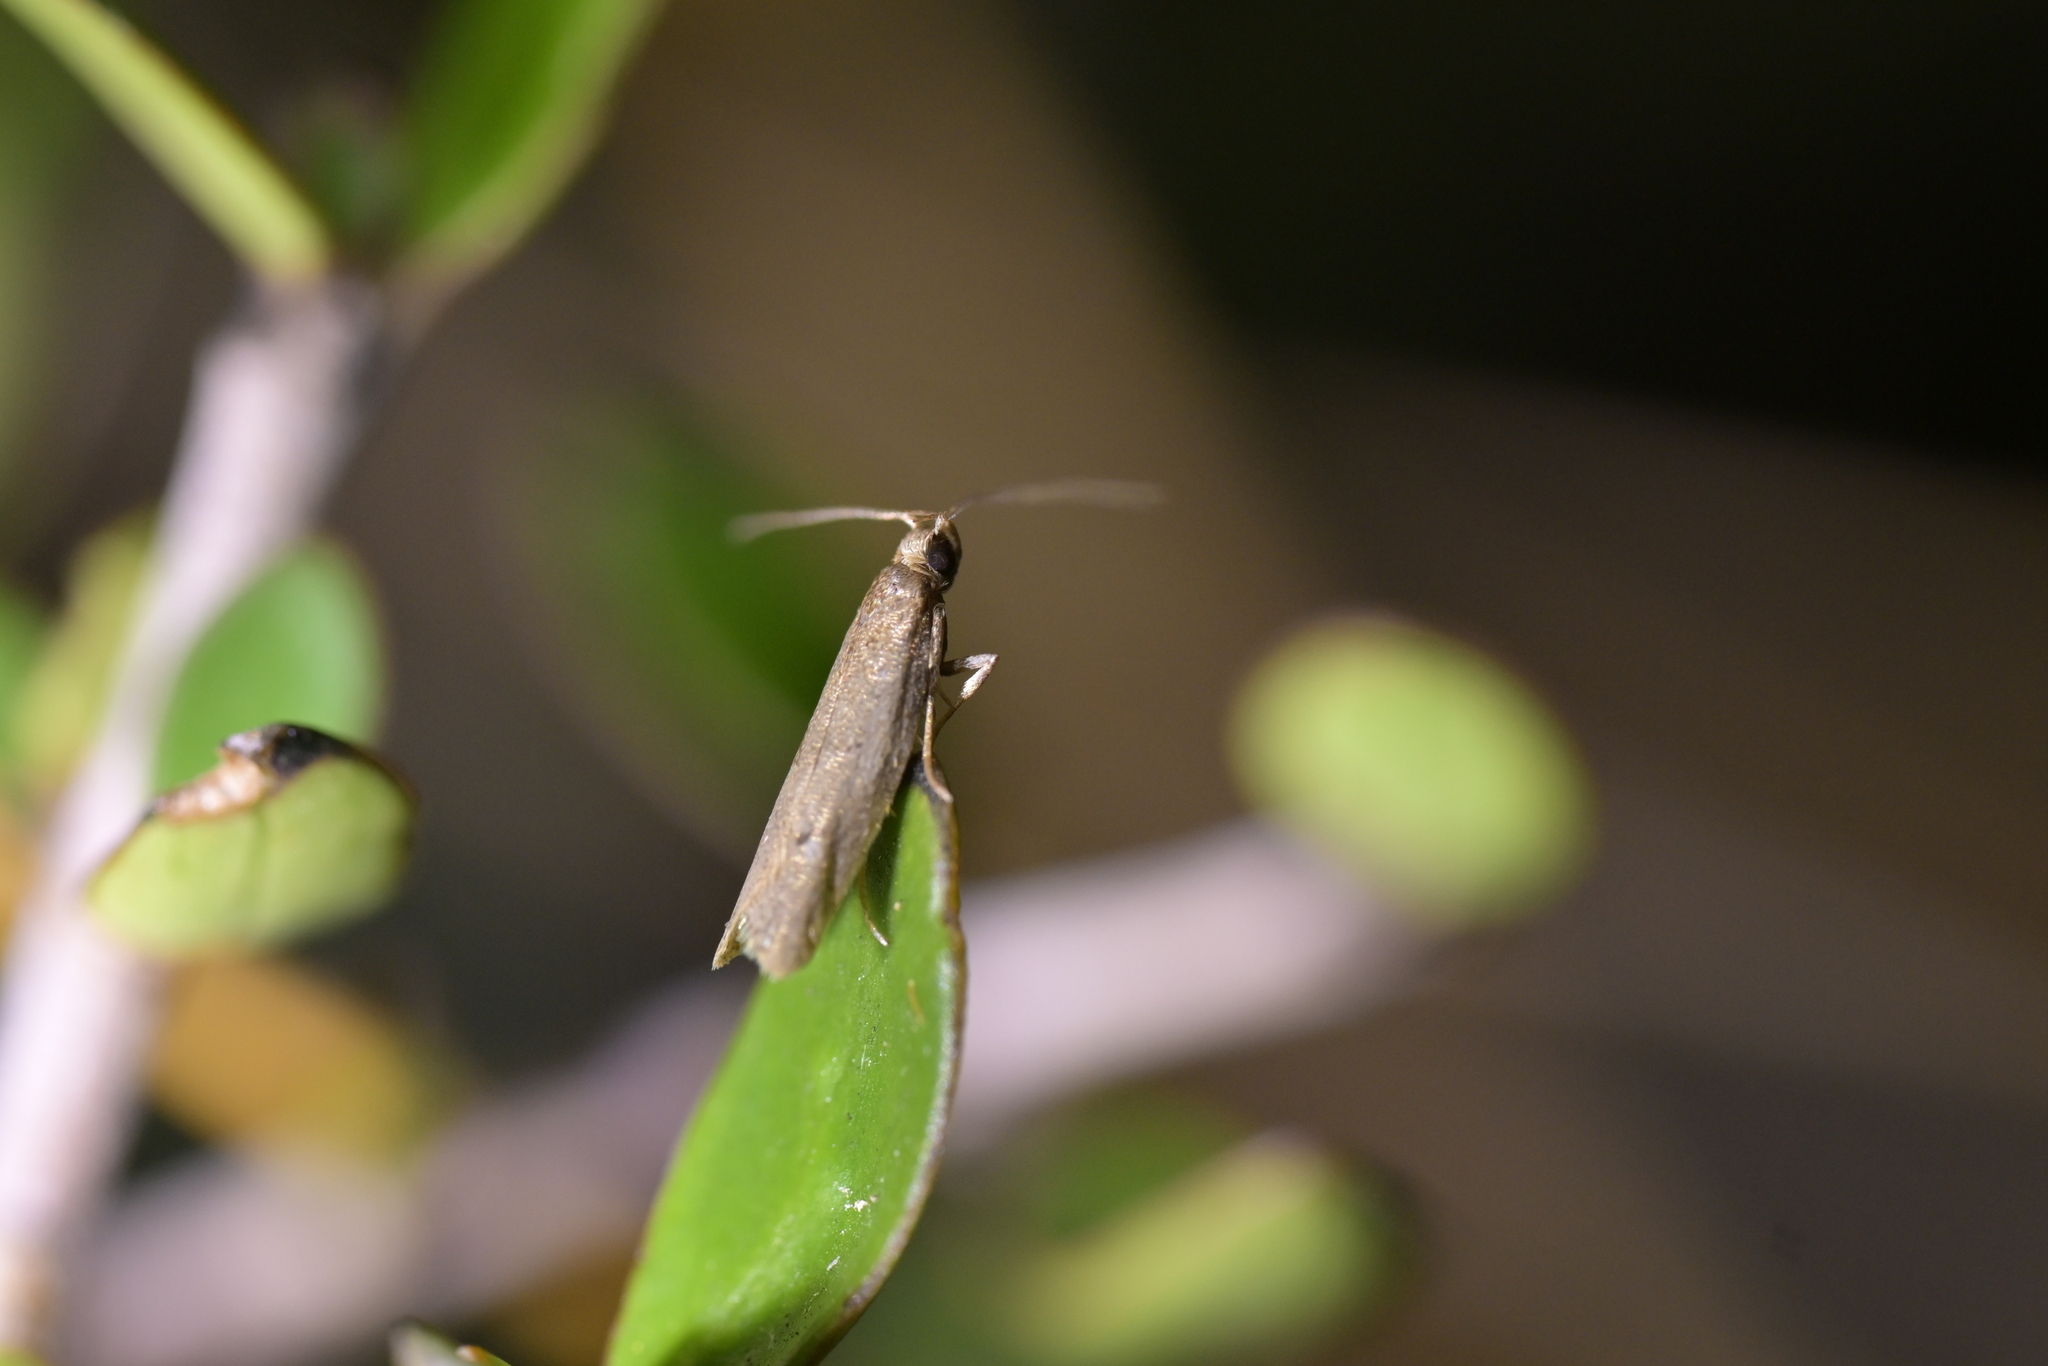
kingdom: Animalia
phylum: Arthropoda
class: Insecta
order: Lepidoptera
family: Oecophoridae
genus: Gymnobathra
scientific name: Gymnobathra tholodella
